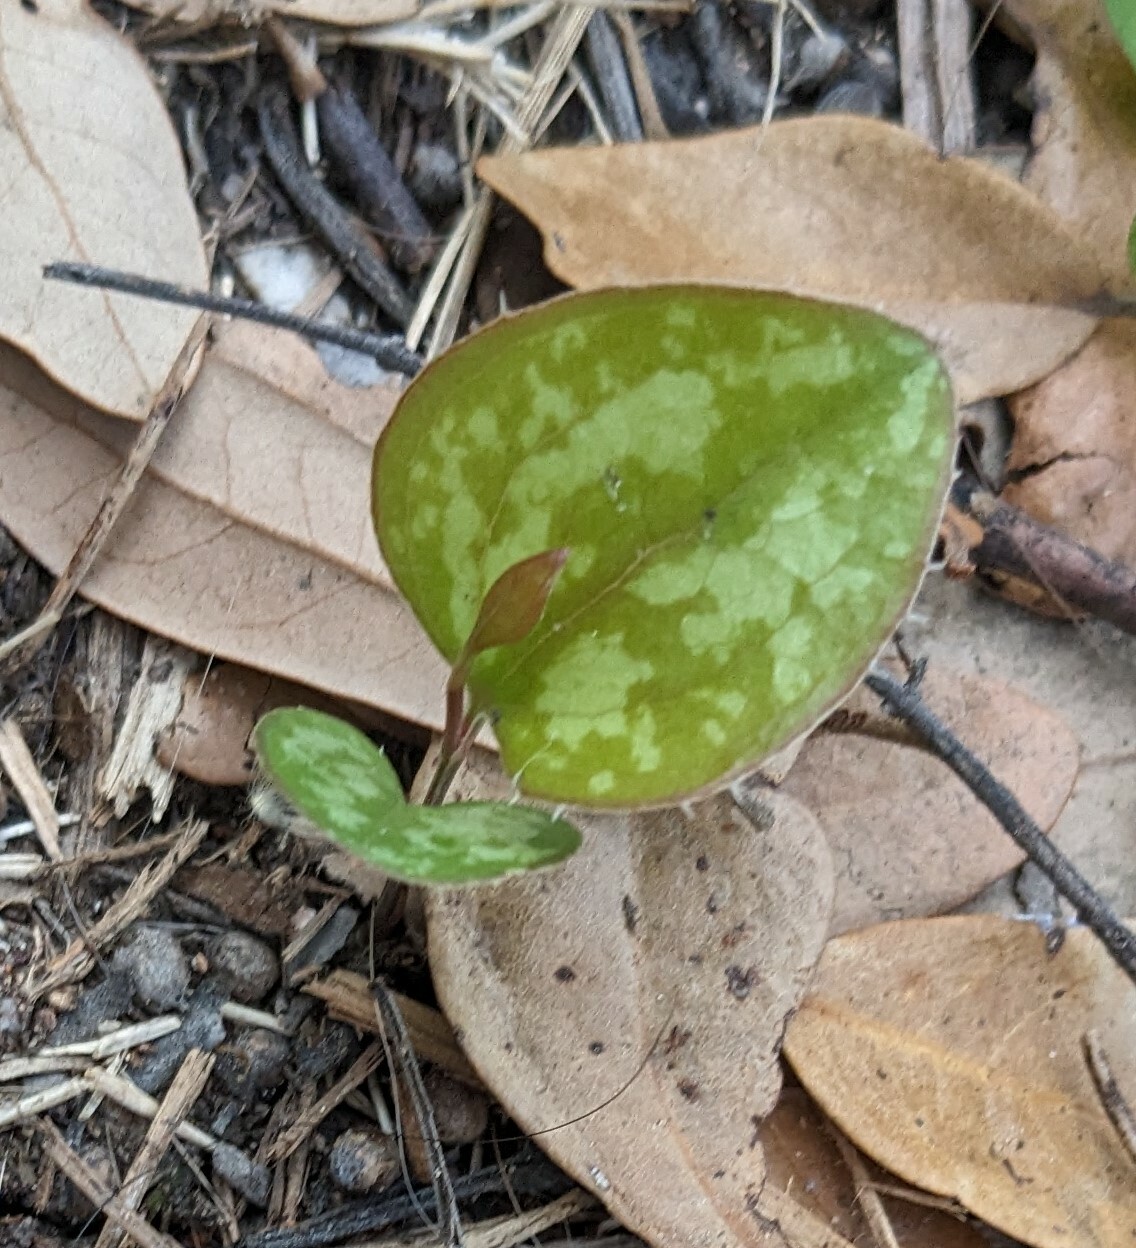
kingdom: Plantae
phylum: Tracheophyta
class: Liliopsida
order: Liliales
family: Smilacaceae
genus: Smilax
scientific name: Smilax bona-nox
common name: Catbrier
